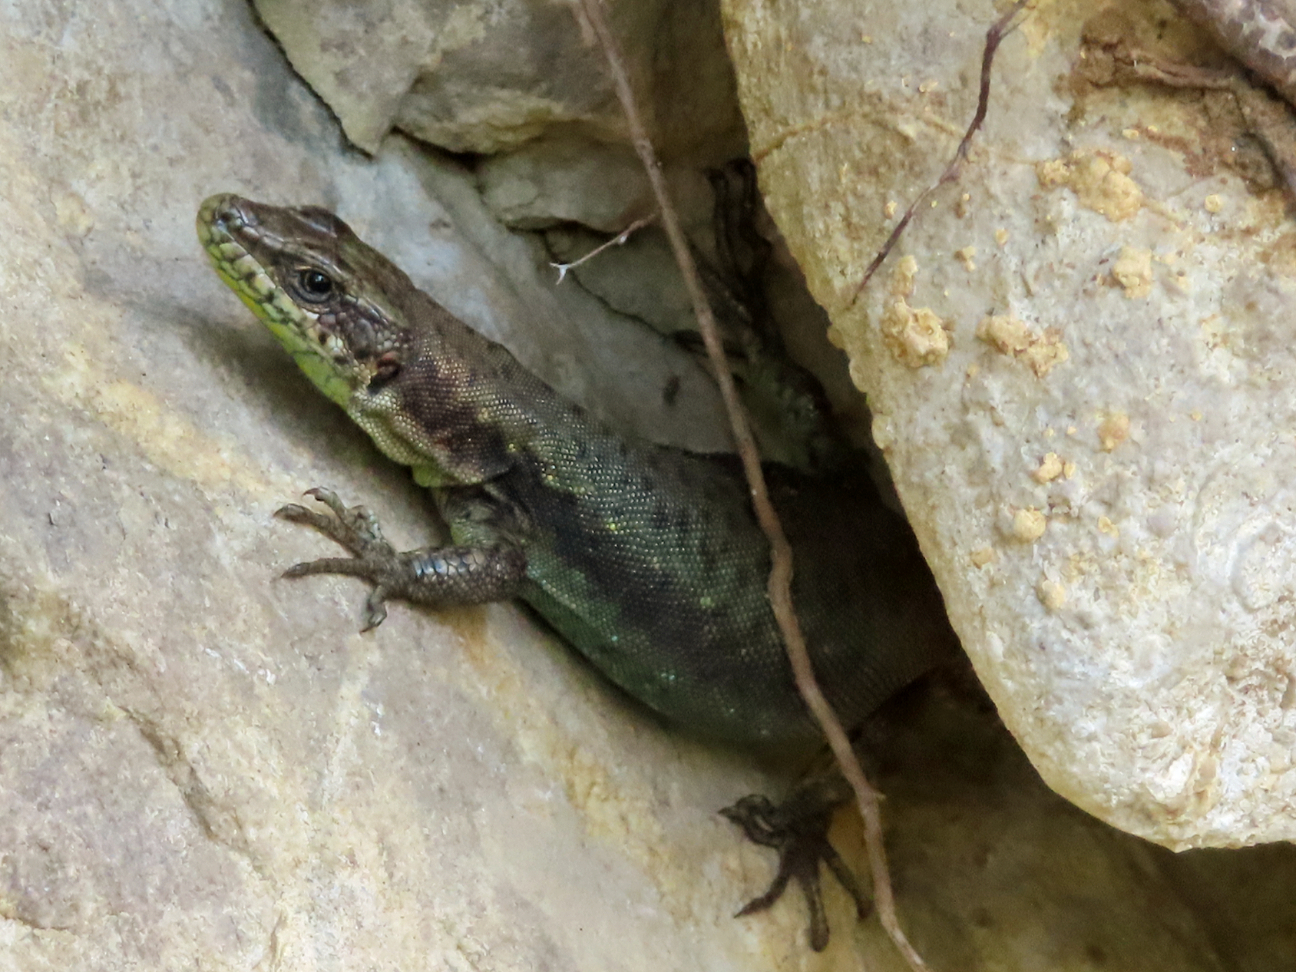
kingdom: Animalia
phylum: Chordata
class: Squamata
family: Lacertidae
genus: Darevskia
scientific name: Darevskia bithynica
